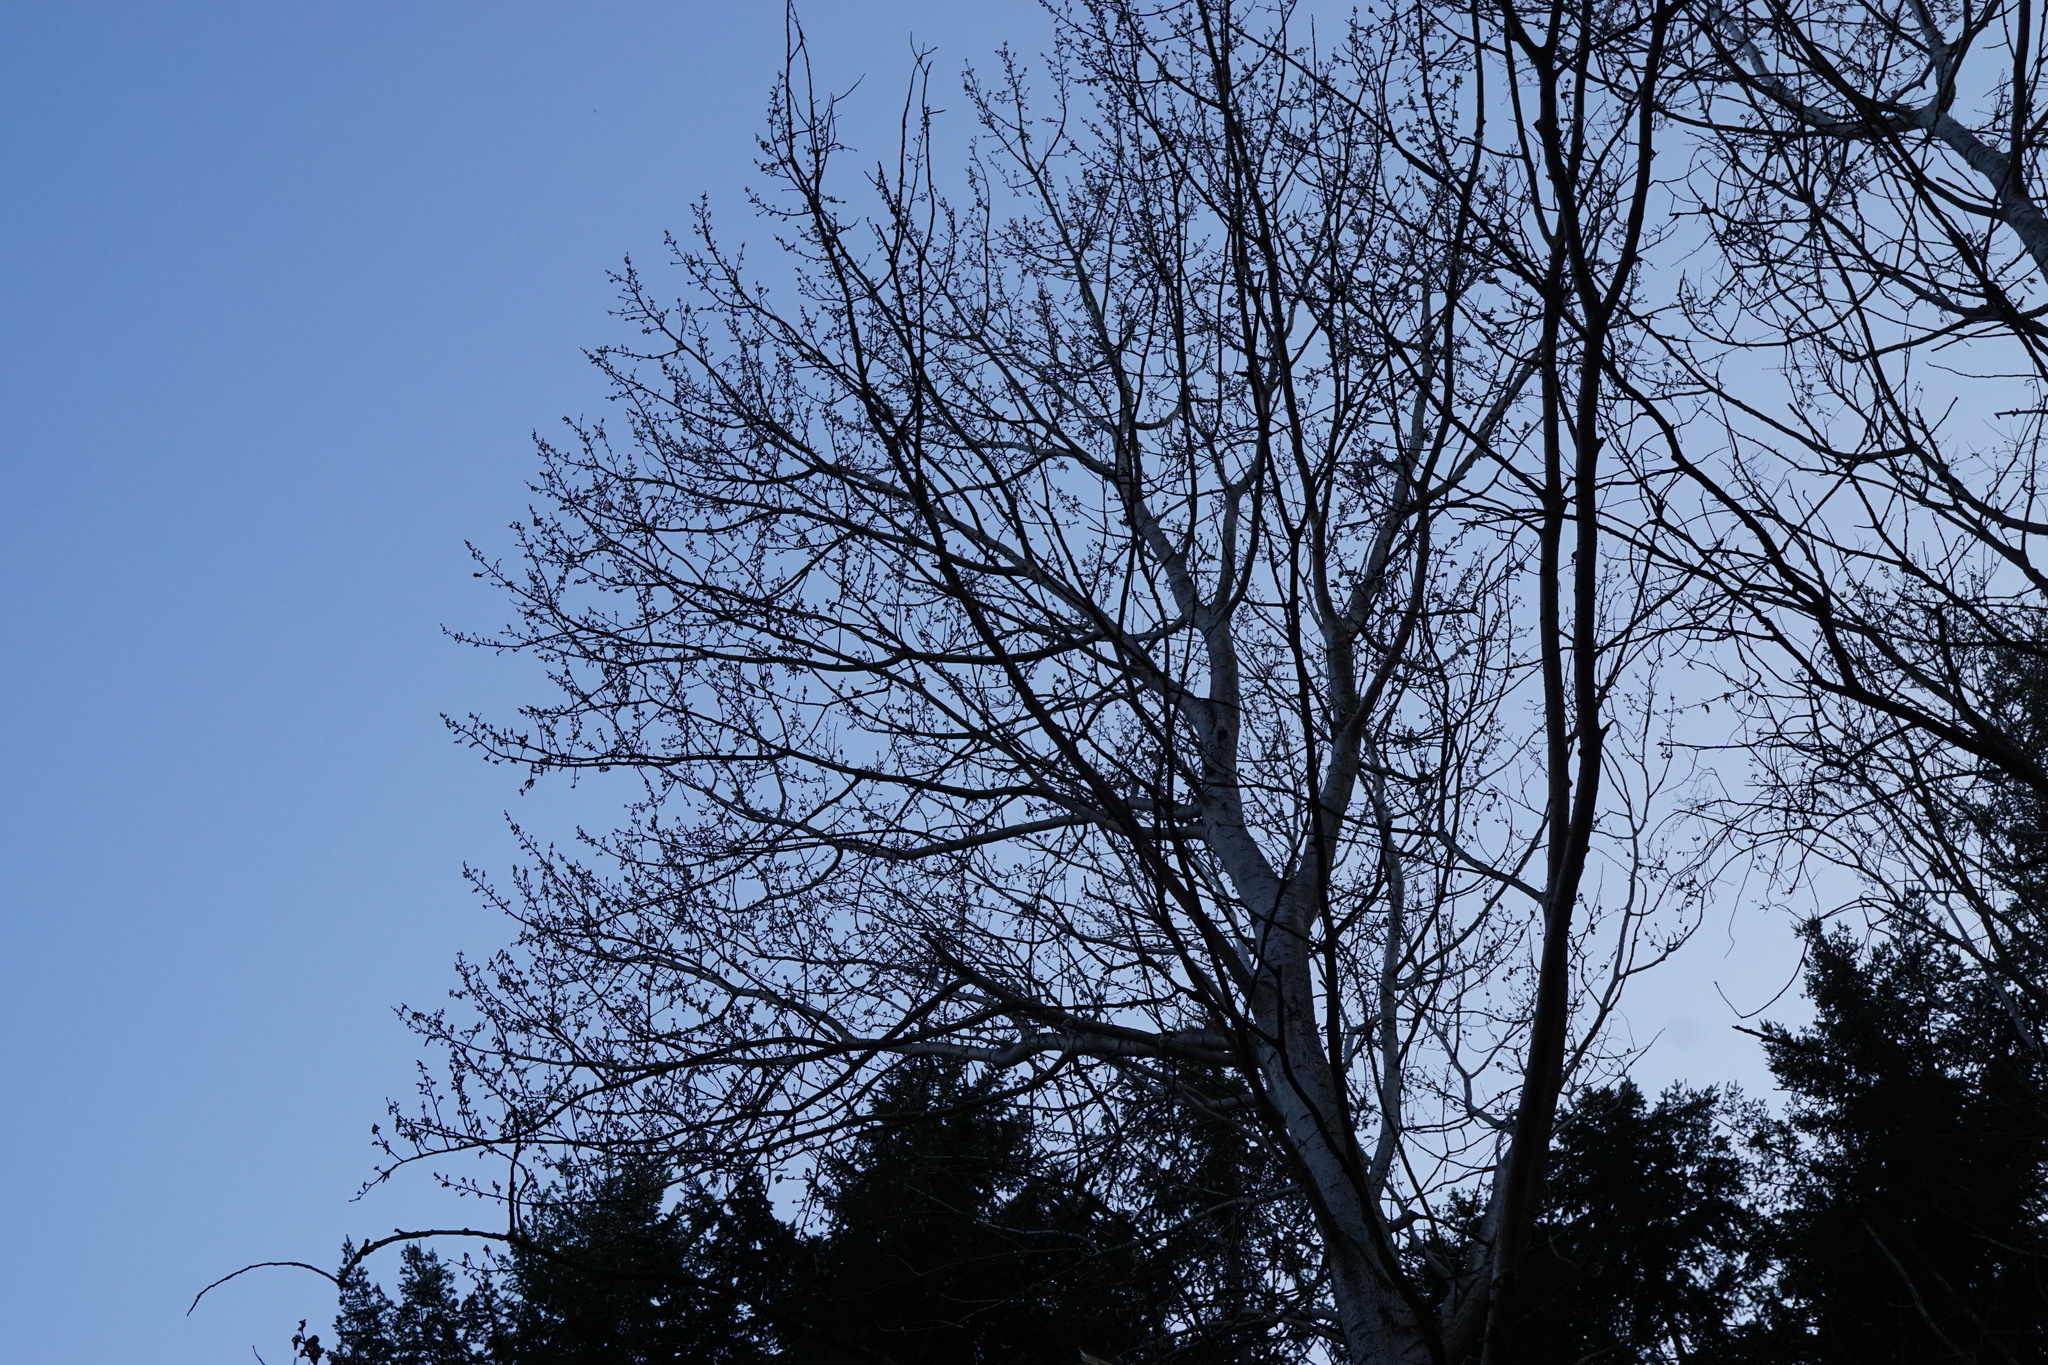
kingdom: Plantae
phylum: Tracheophyta
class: Magnoliopsida
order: Malpighiales
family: Salicaceae
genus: Populus
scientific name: Populus tremula
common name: European aspen
